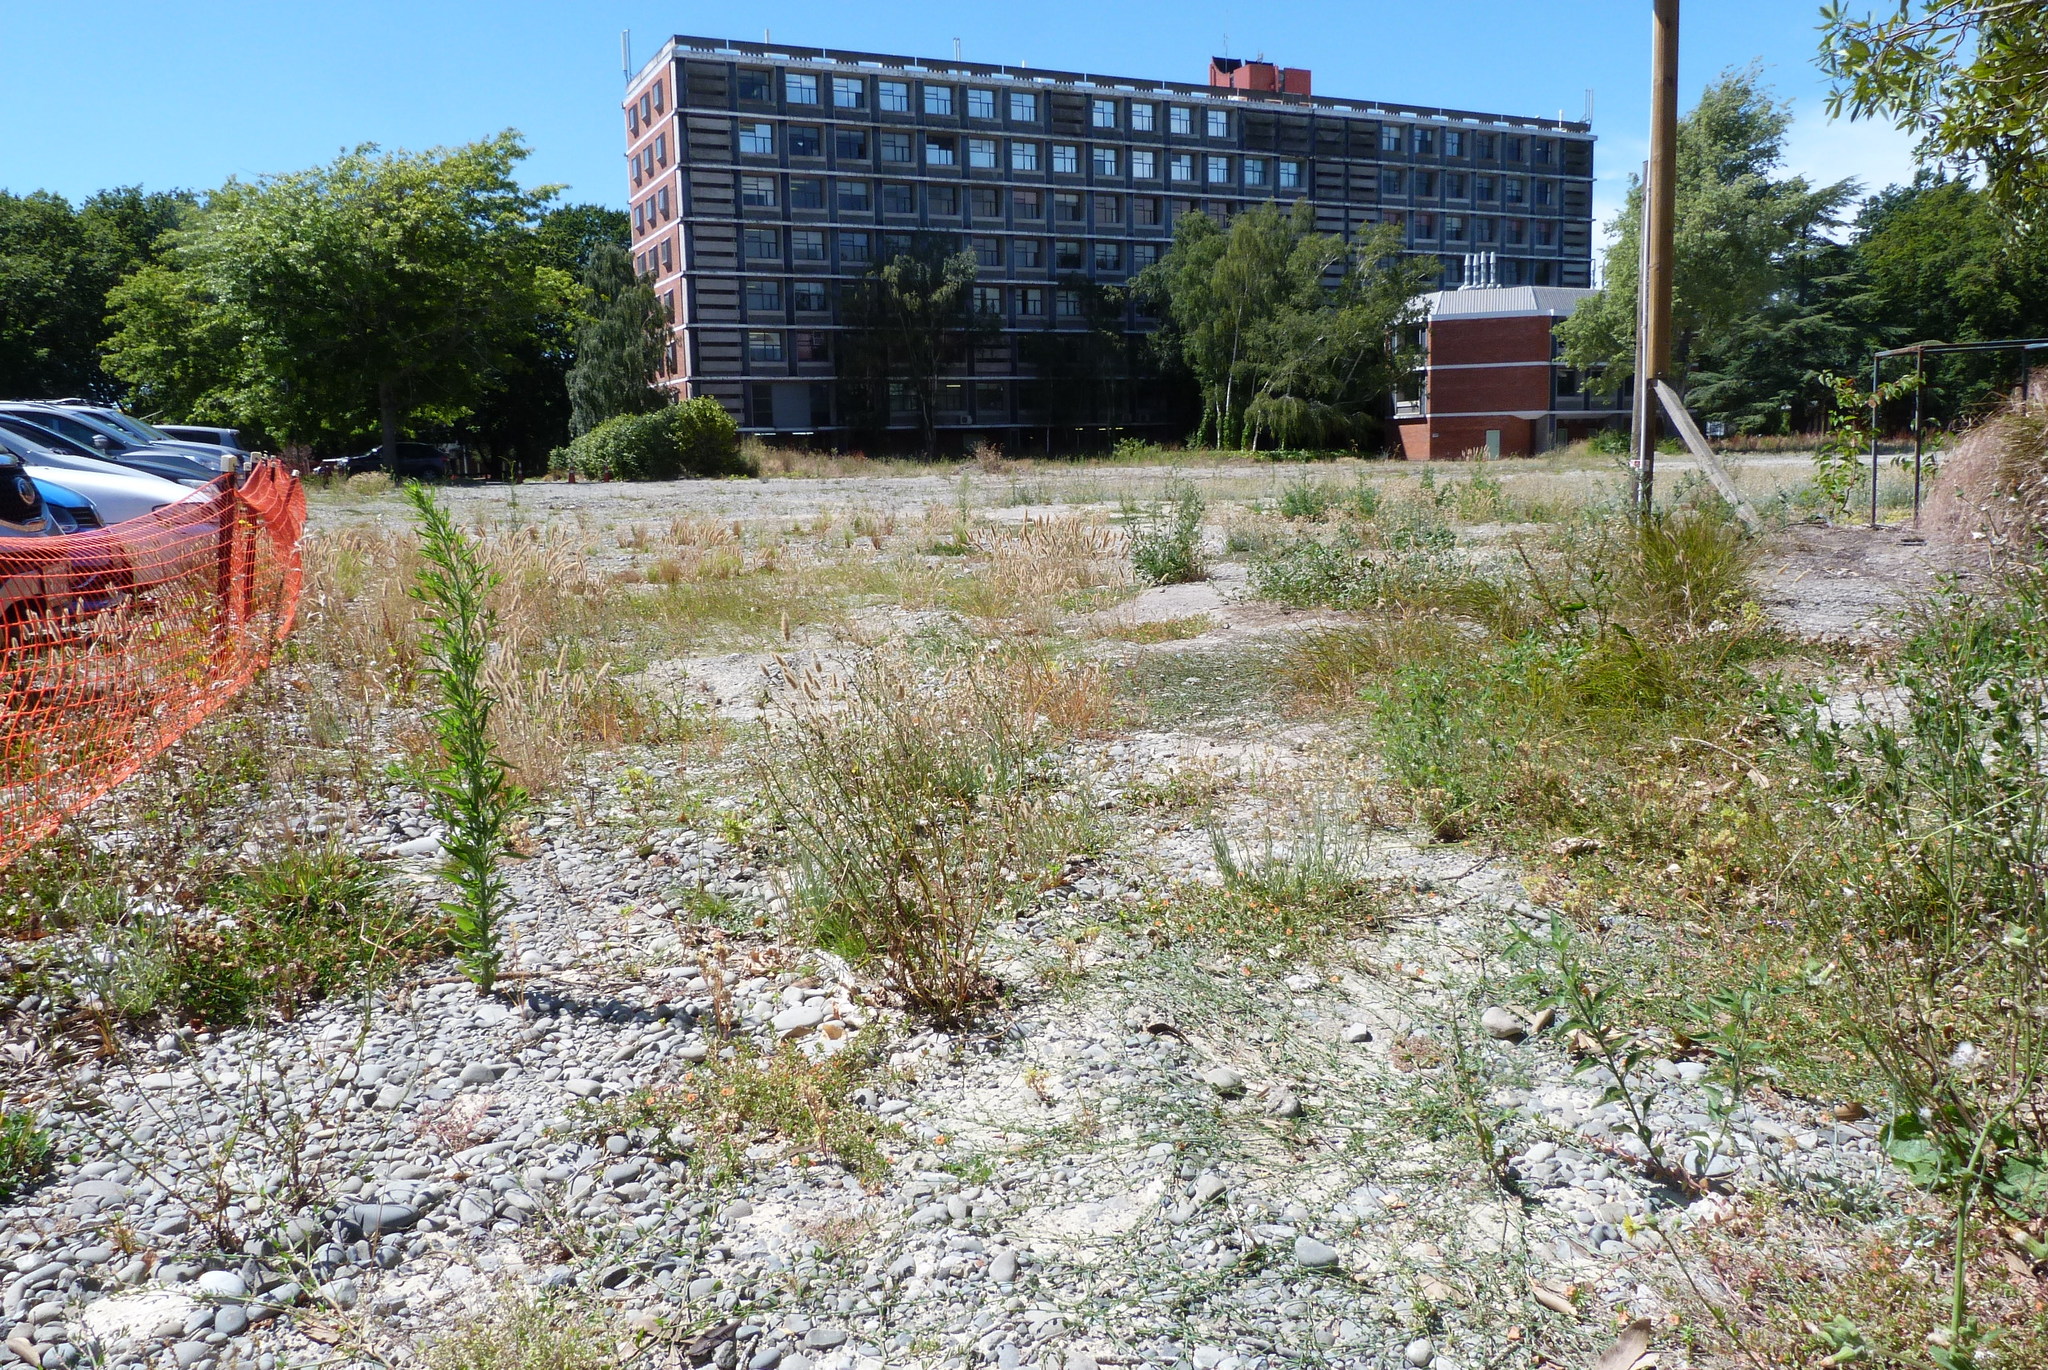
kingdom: Plantae
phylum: Tracheophyta
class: Liliopsida
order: Poales
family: Poaceae
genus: Polypogon
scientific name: Polypogon monspeliensis
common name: Annual rabbitsfoot grass
